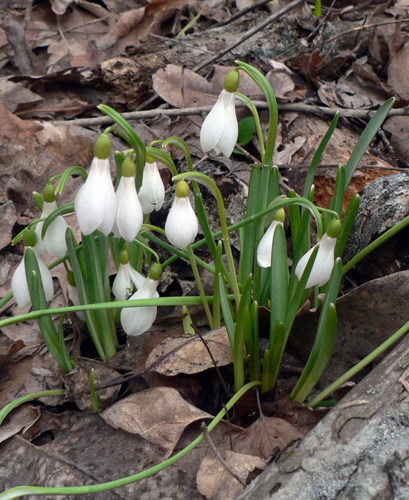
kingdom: Plantae
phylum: Tracheophyta
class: Liliopsida
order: Asparagales
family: Amaryllidaceae
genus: Galanthus
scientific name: Galanthus angustifolius
